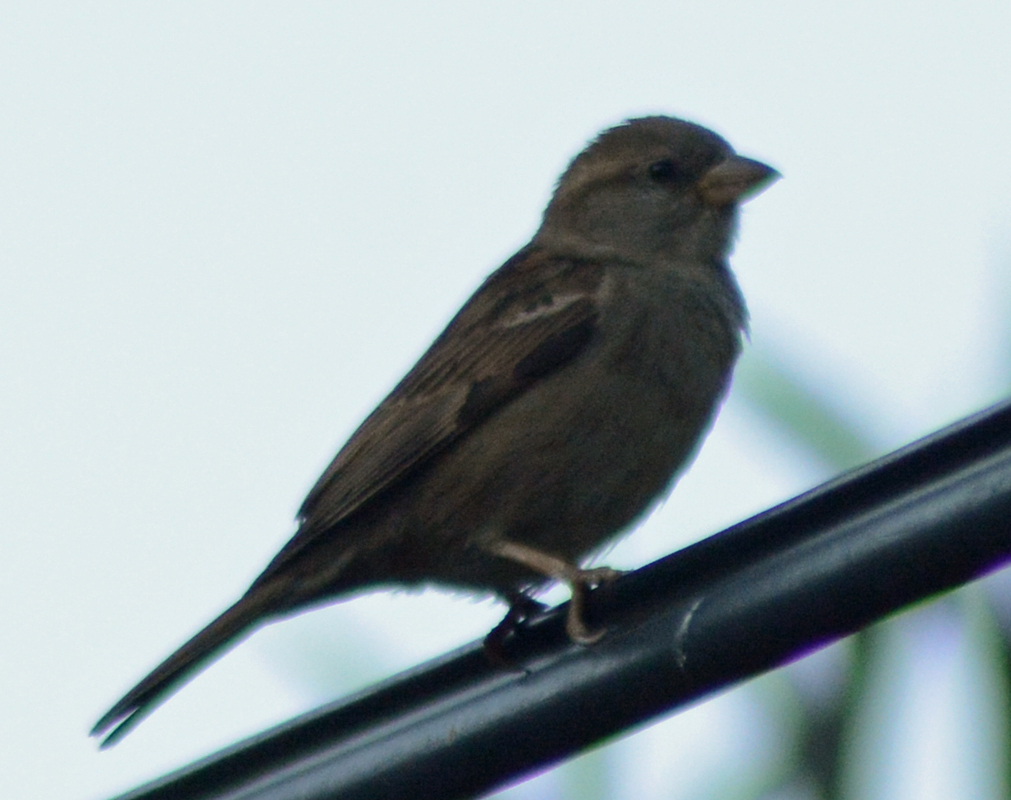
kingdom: Animalia
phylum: Chordata
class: Aves
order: Passeriformes
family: Passeridae
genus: Passer
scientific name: Passer domesticus
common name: House sparrow
